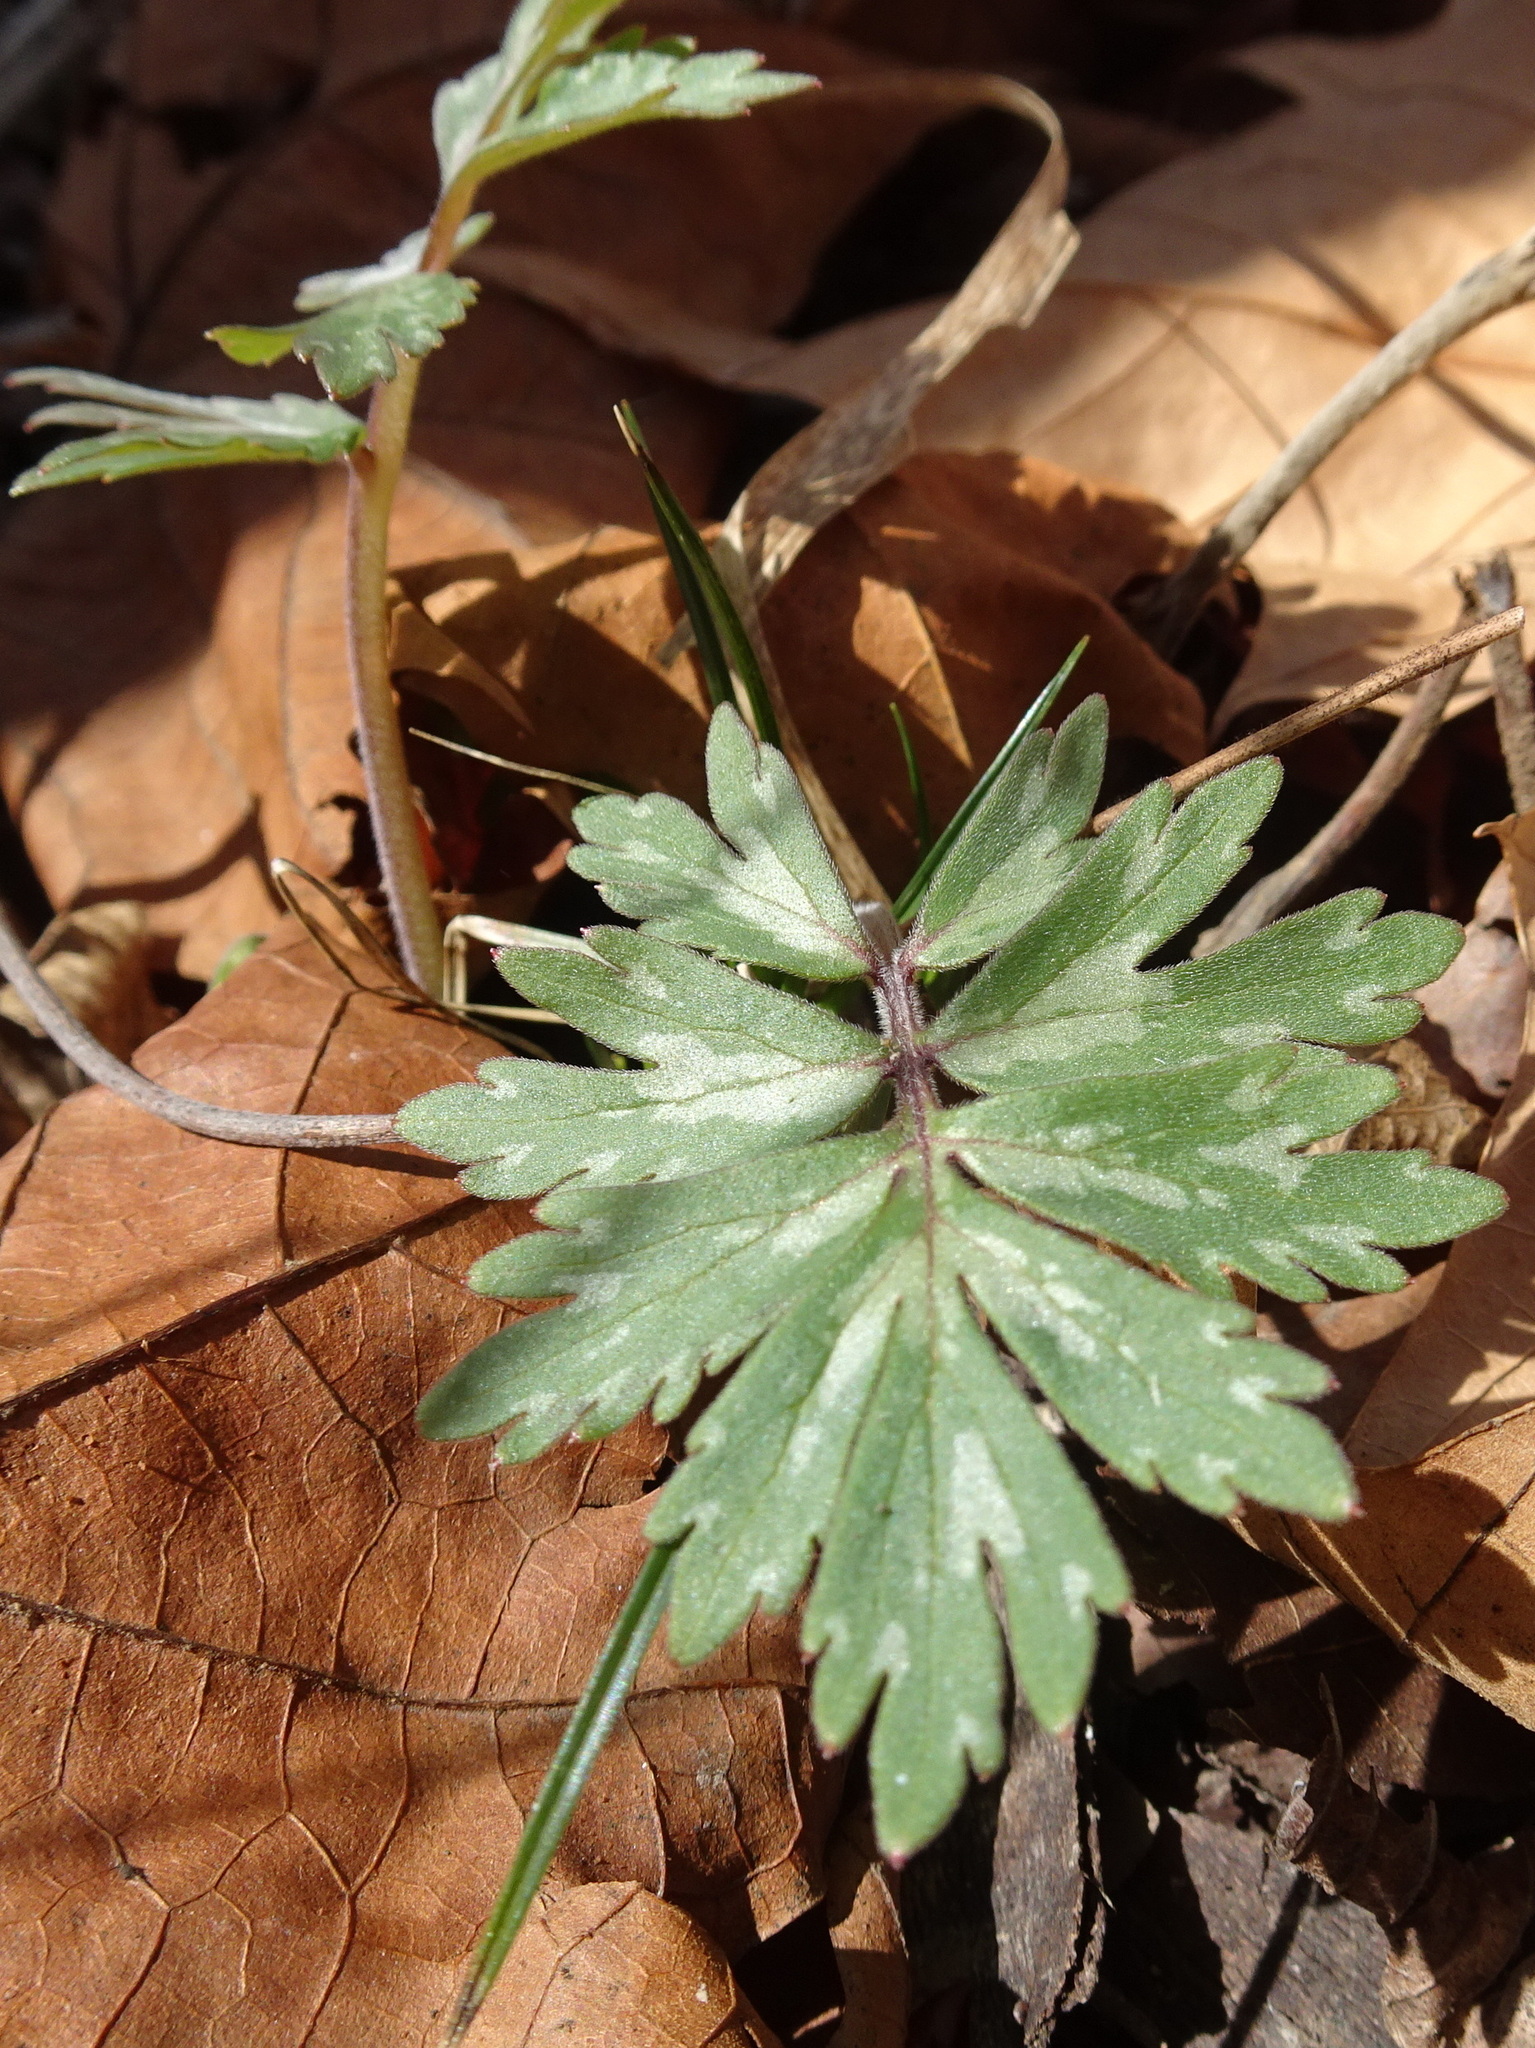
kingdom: Plantae
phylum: Tracheophyta
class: Magnoliopsida
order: Boraginales
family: Hydrophyllaceae
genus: Hydrophyllum
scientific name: Hydrophyllum virginianum
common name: Virginia waterleaf
